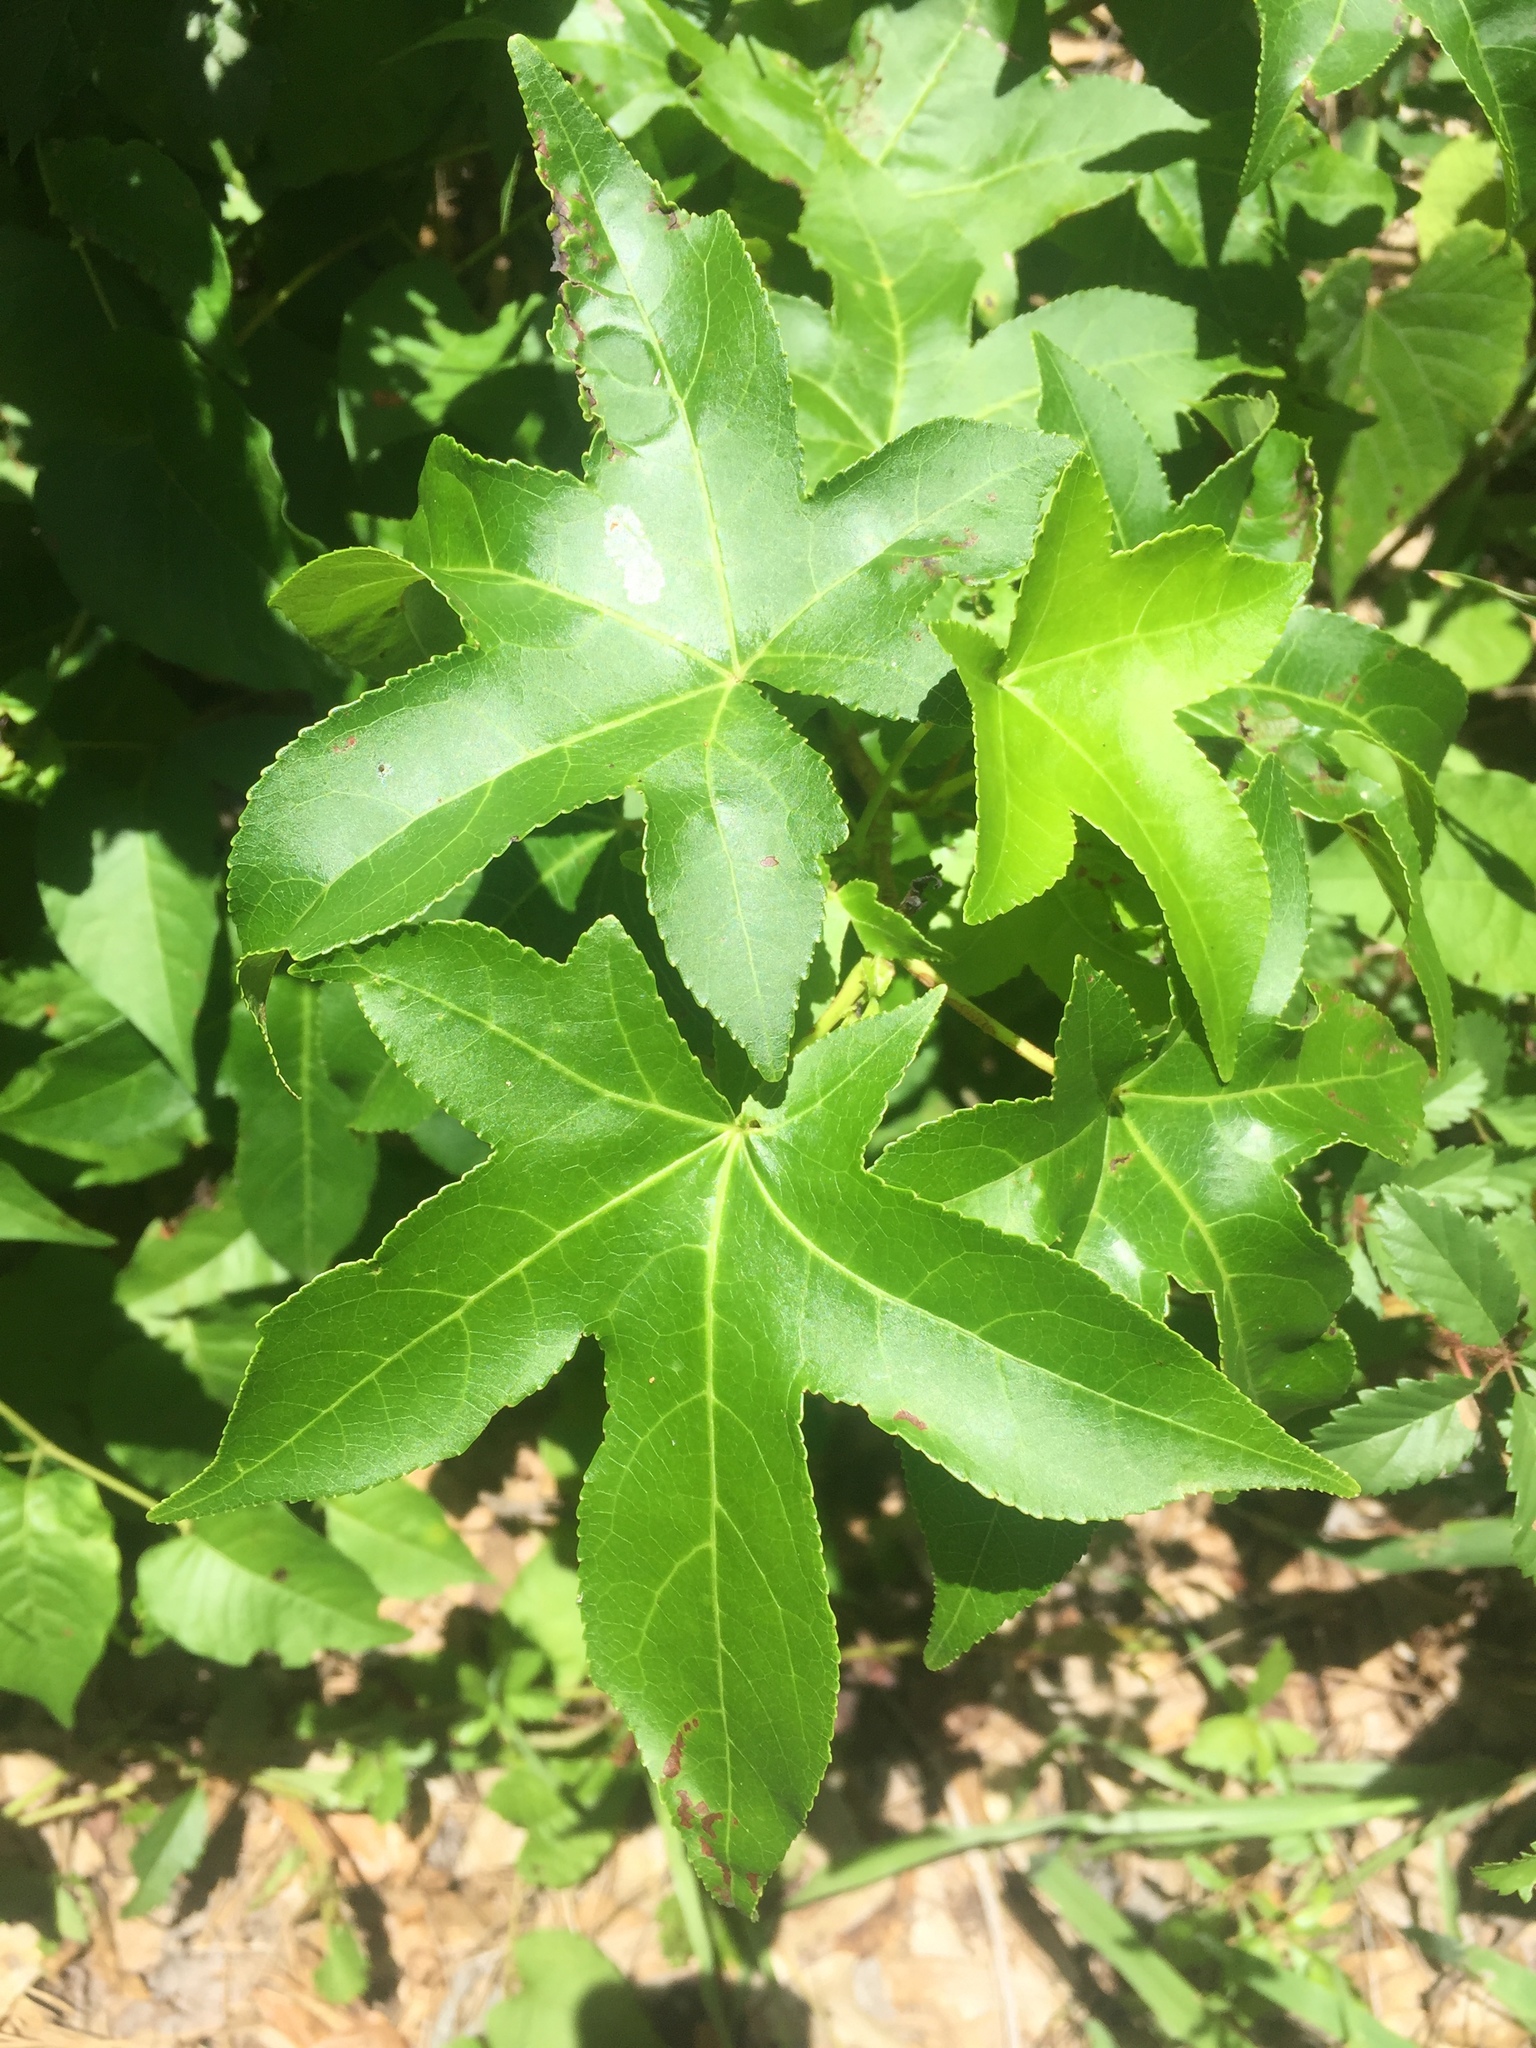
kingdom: Plantae
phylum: Tracheophyta
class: Magnoliopsida
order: Saxifragales
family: Altingiaceae
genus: Liquidambar
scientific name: Liquidambar styraciflua
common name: Sweet gum
